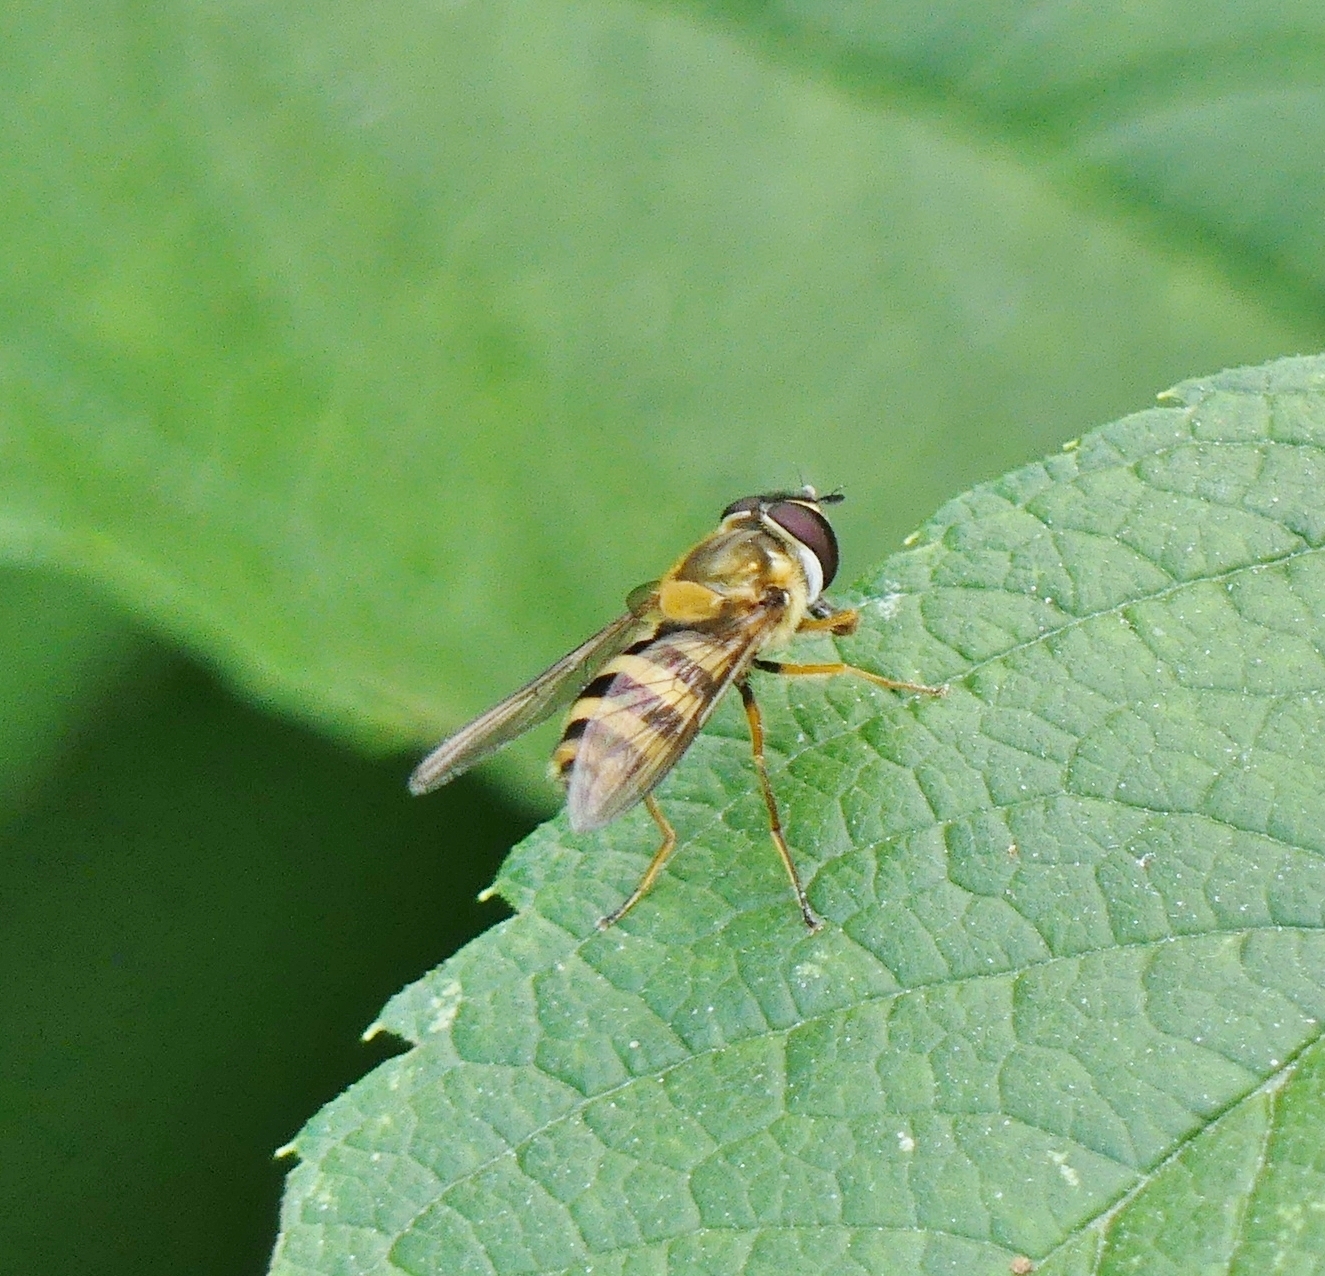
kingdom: Animalia
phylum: Arthropoda
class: Insecta
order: Diptera
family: Syrphidae
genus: Epistrophe
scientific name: Epistrophe grossulariae
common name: Black-horned smoothtail
